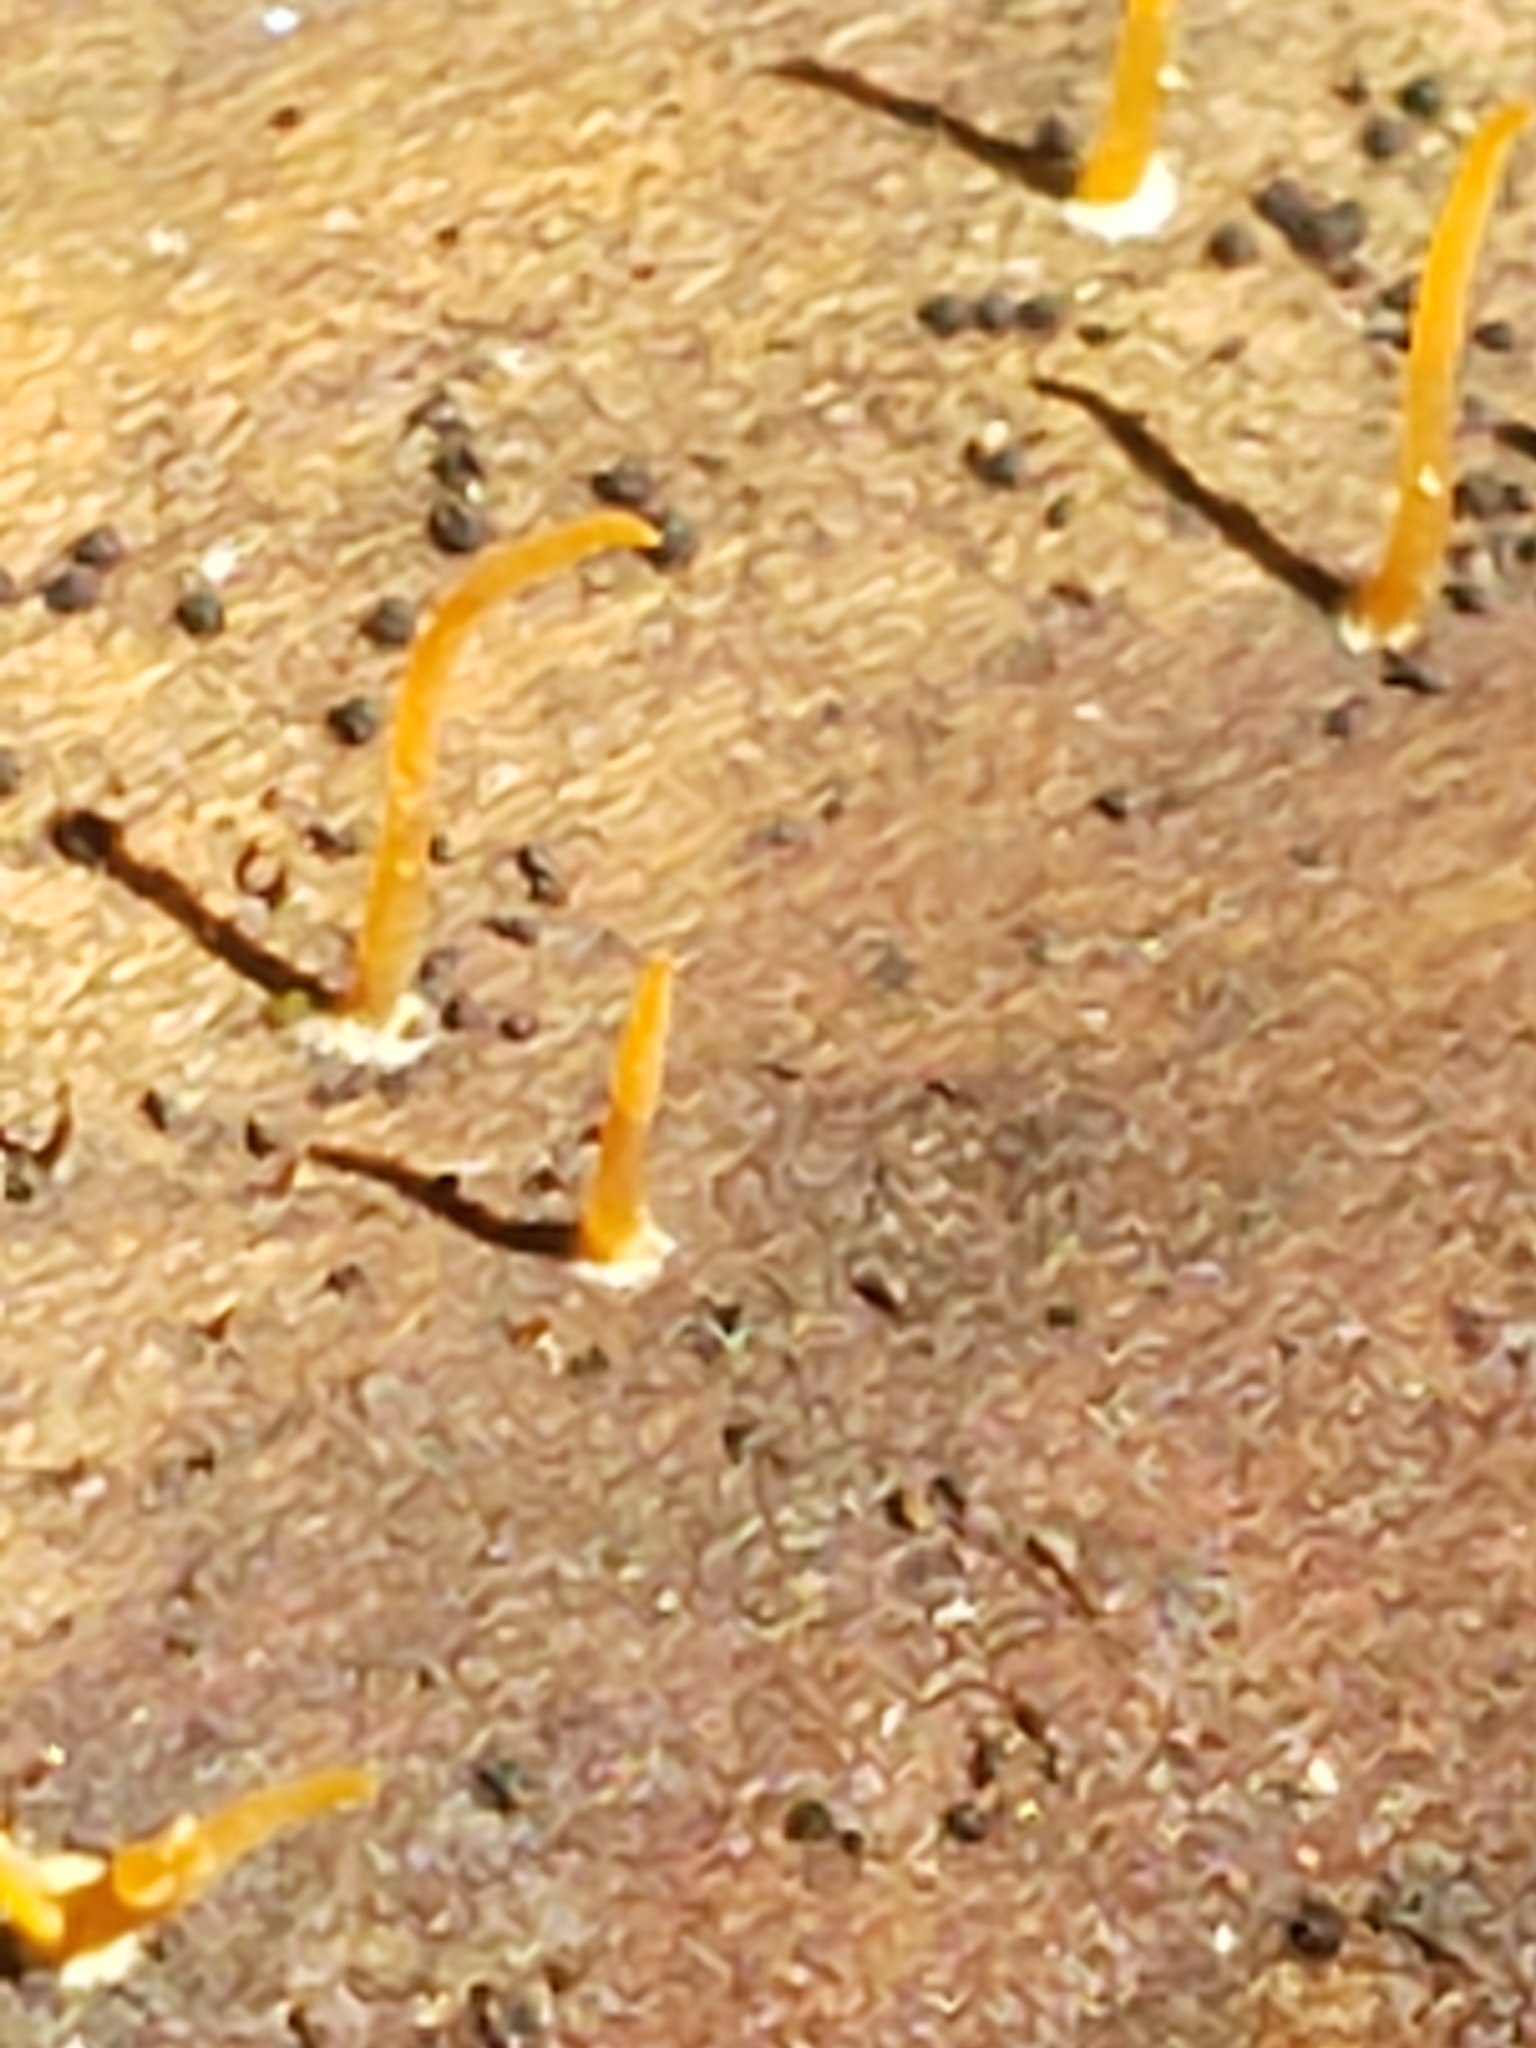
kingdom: Fungi
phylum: Basidiomycota
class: Dacrymycetes
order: Dacrymycetales
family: Dacrymycetaceae
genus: Calocera
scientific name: Calocera cornea
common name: Small stagshorn
